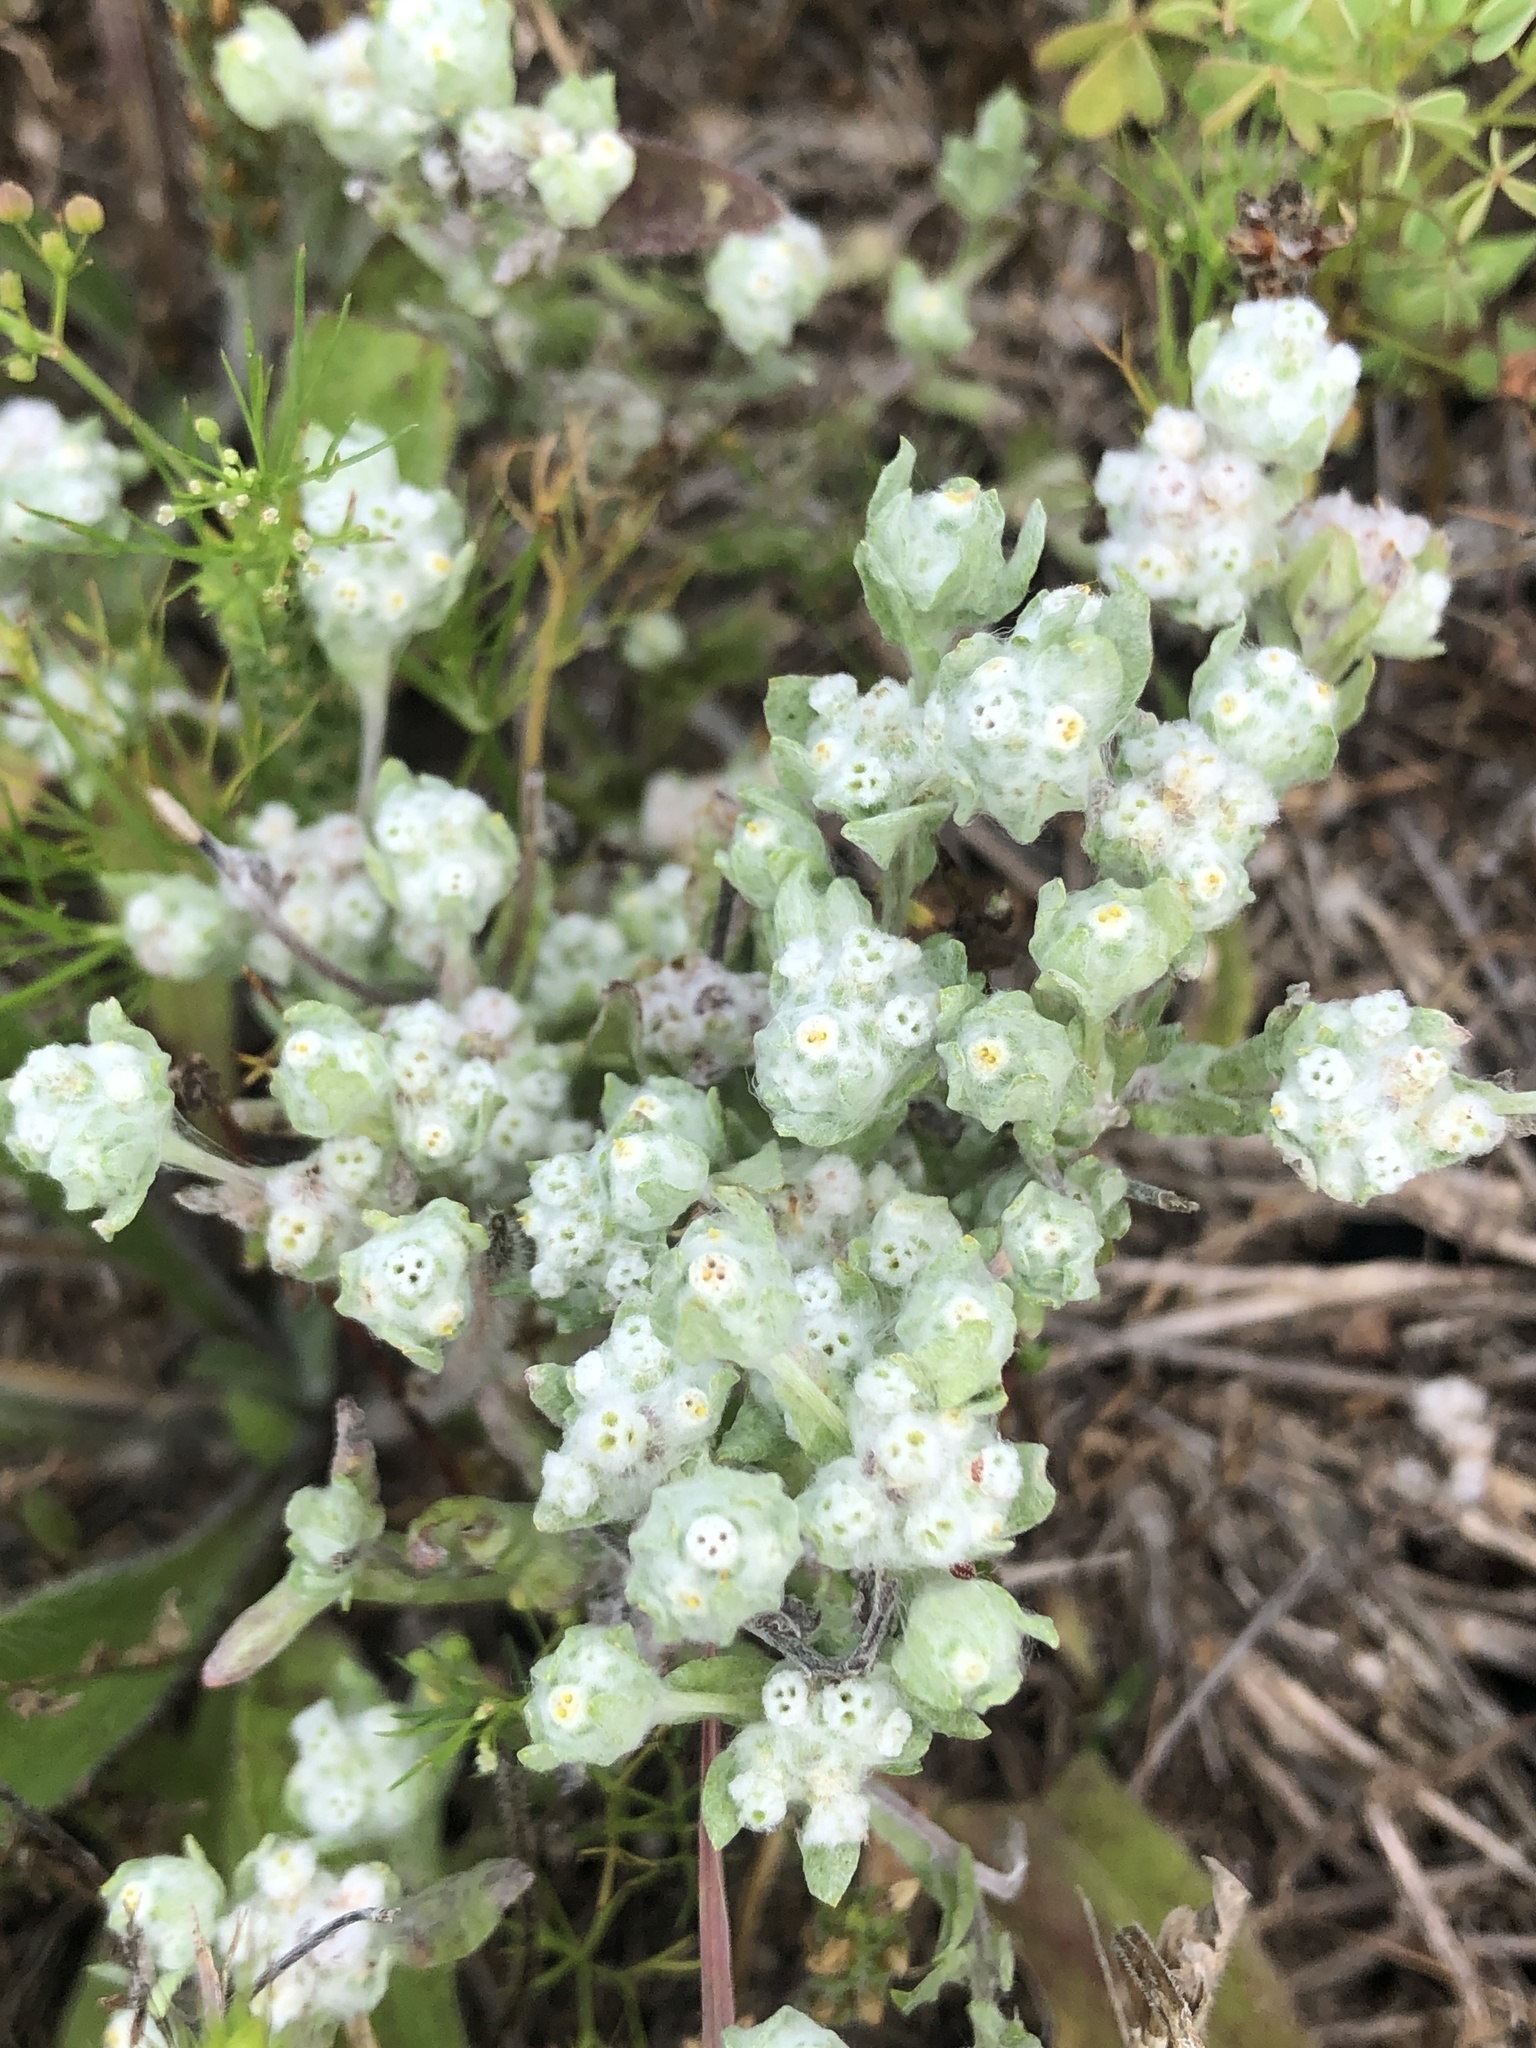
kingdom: Plantae
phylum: Tracheophyta
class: Magnoliopsida
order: Asterales
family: Asteraceae
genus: Diaperia
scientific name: Diaperia verna
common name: Many-stem rabbit-tobacco
